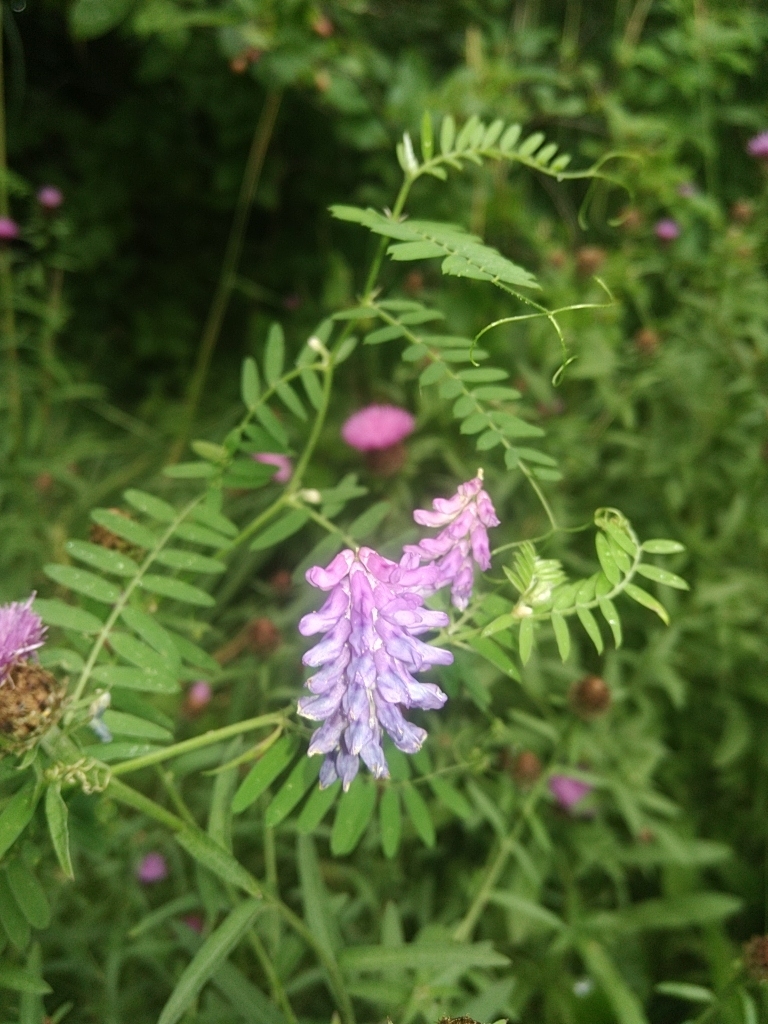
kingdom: Plantae
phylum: Tracheophyta
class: Magnoliopsida
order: Fabales
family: Fabaceae
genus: Vicia
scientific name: Vicia cracca
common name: Bird vetch
